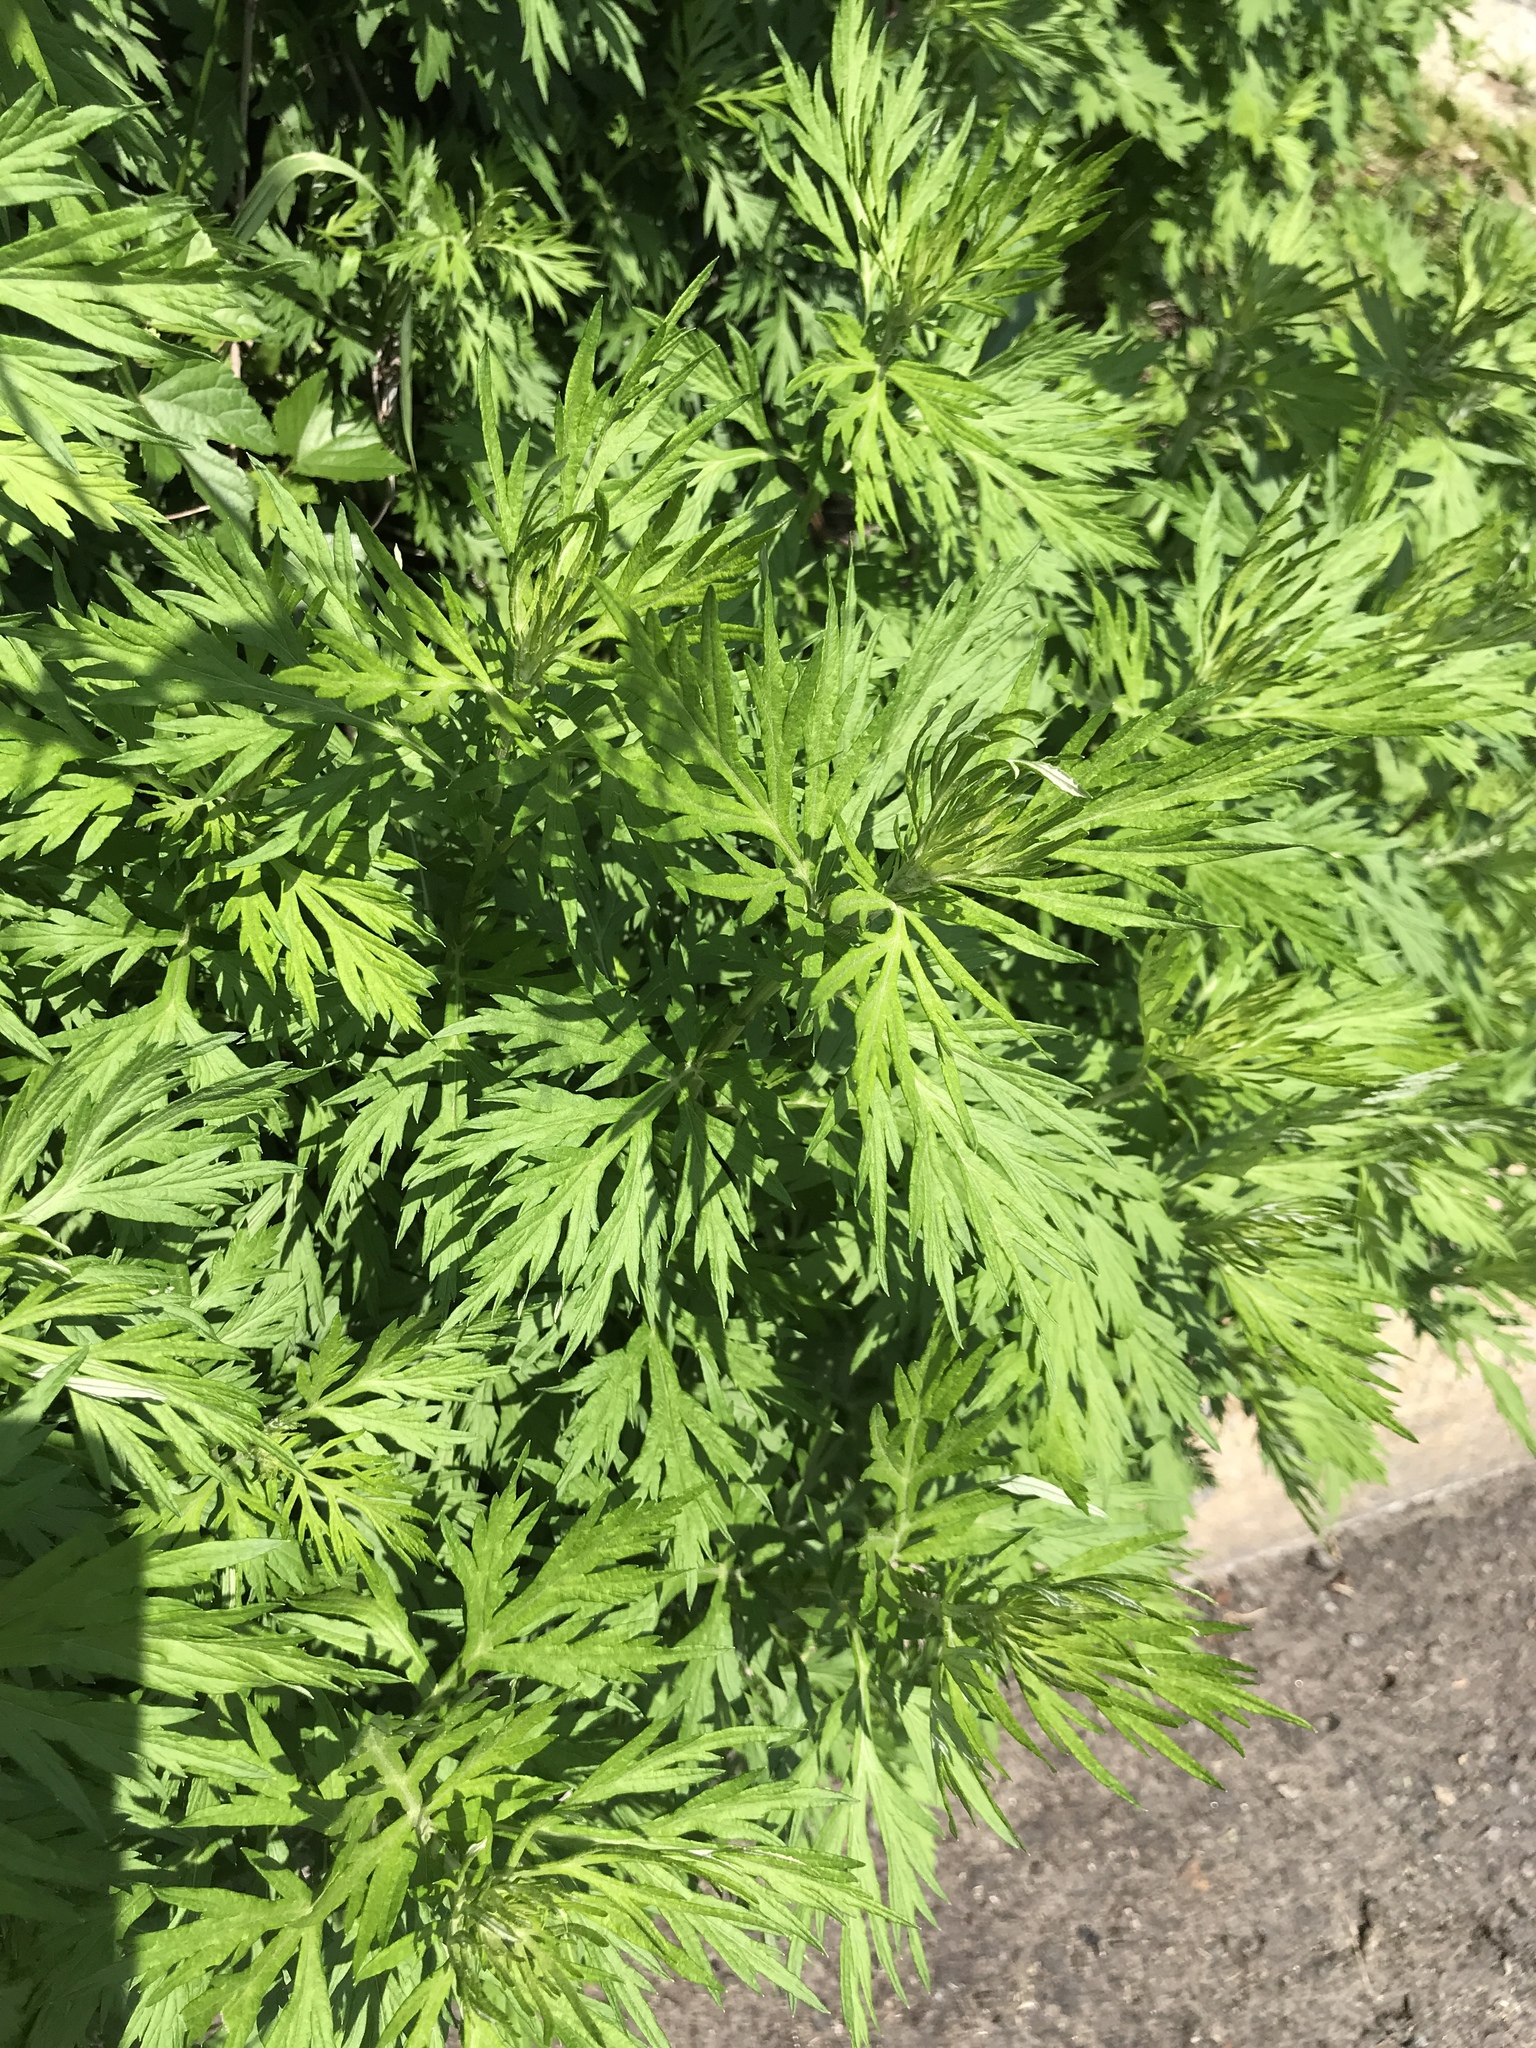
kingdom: Plantae
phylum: Tracheophyta
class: Magnoliopsida
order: Asterales
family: Asteraceae
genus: Artemisia
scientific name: Artemisia vulgaris
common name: Mugwort
